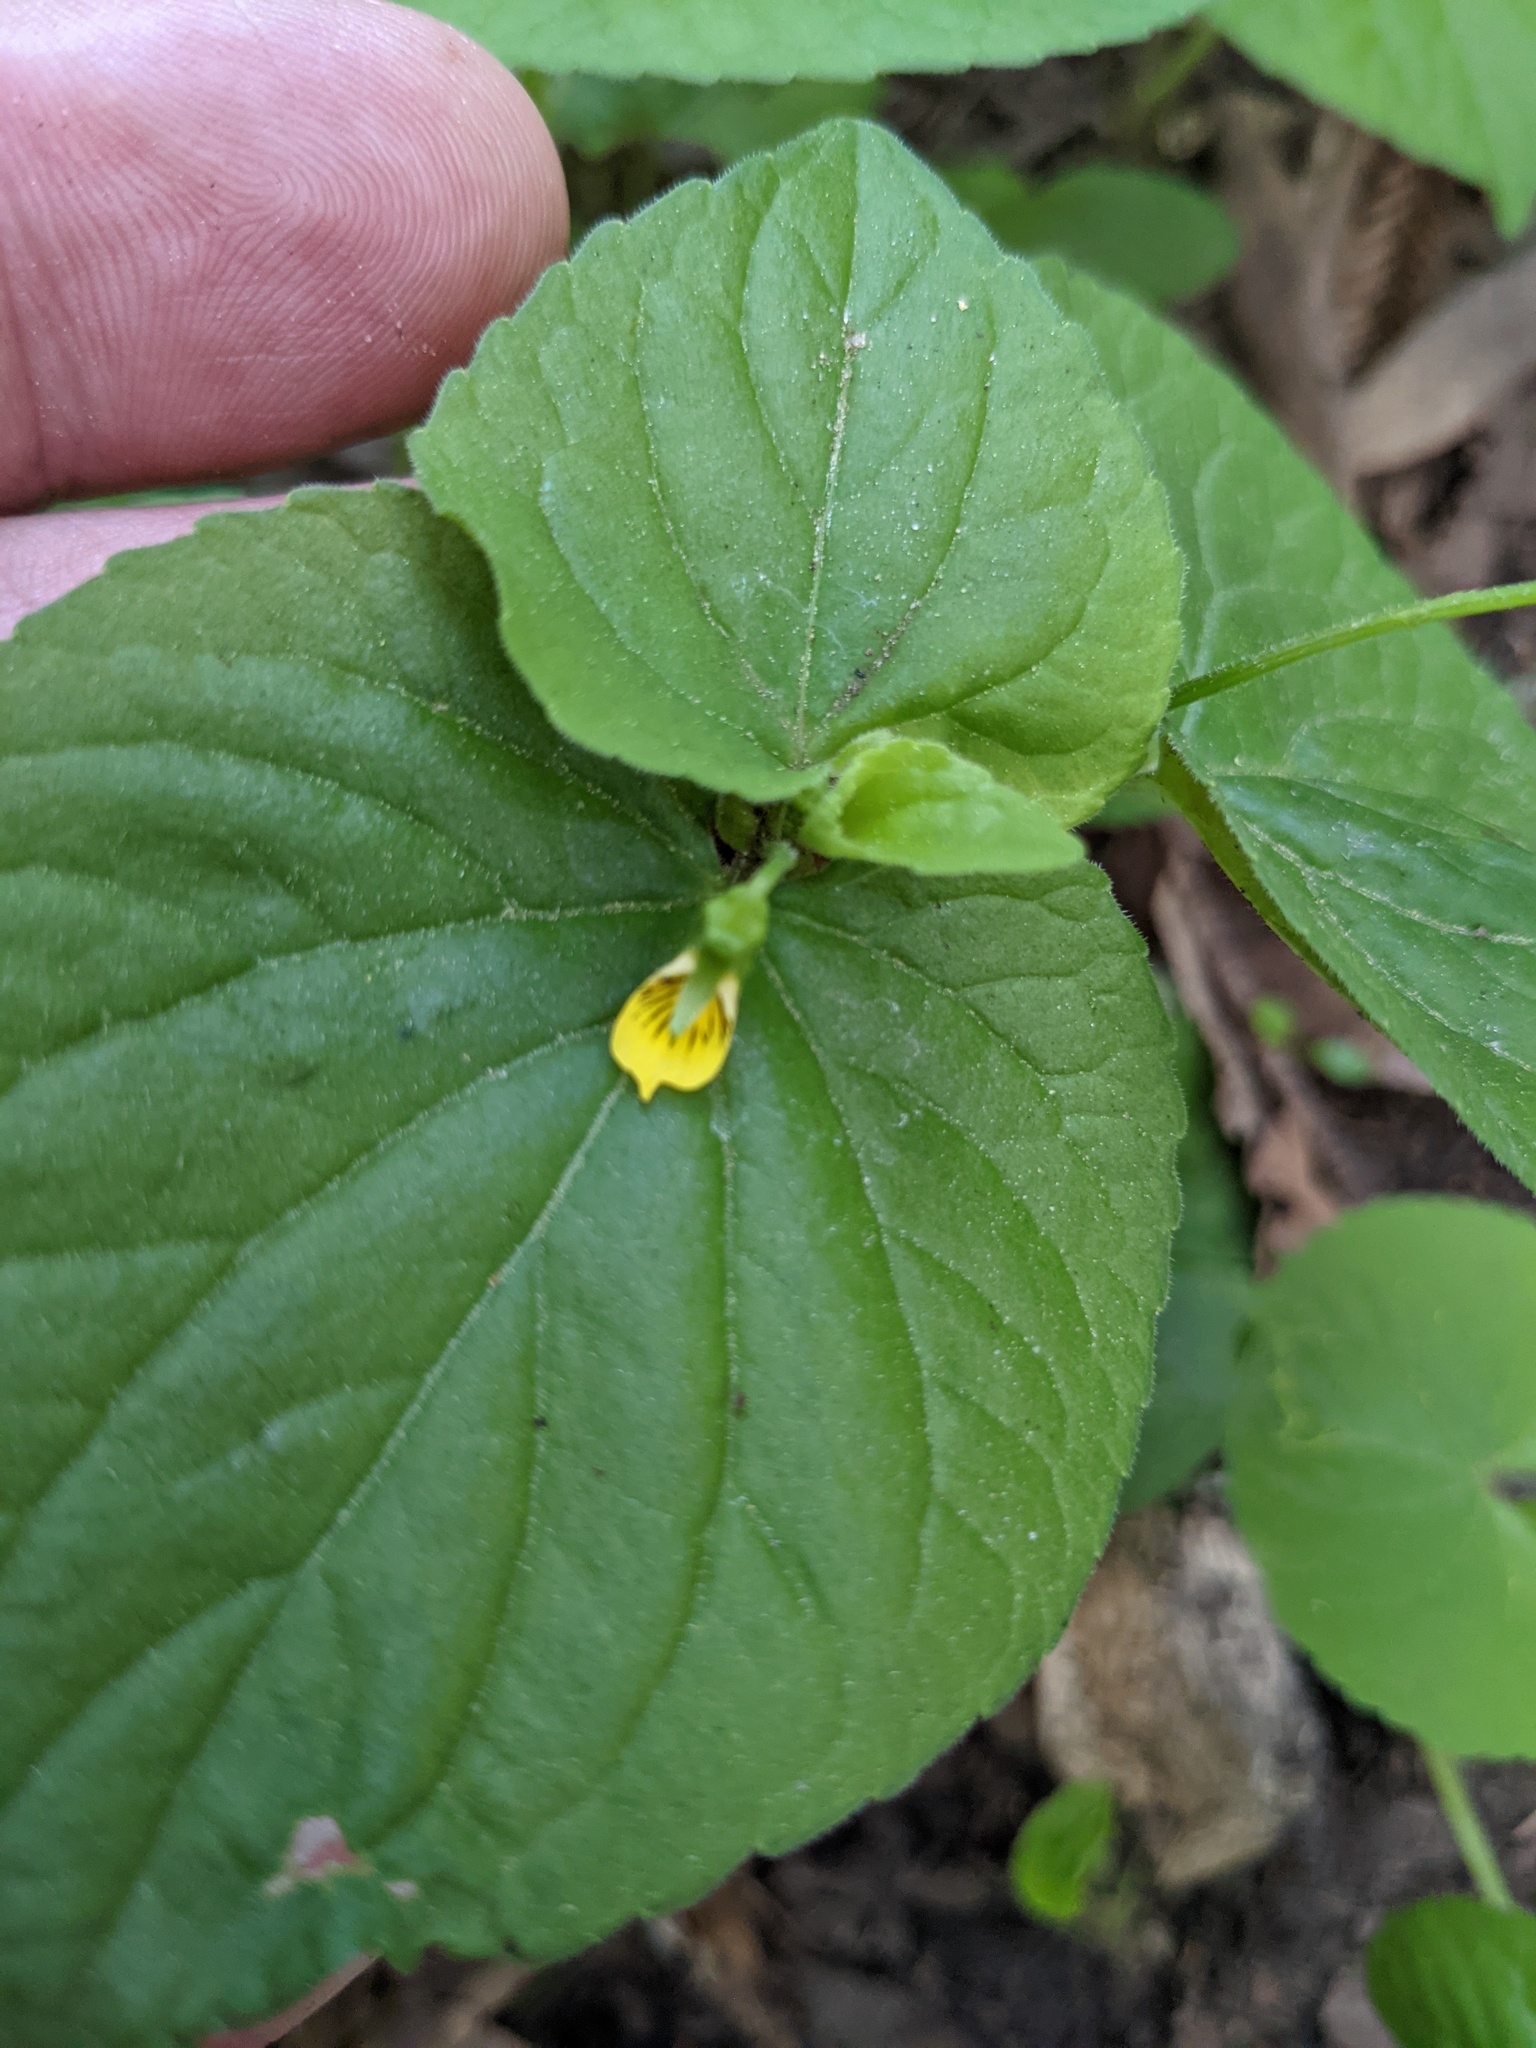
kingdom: Plantae
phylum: Tracheophyta
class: Magnoliopsida
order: Malpighiales
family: Violaceae
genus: Viola
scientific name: Viola glabella
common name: Stream violet
